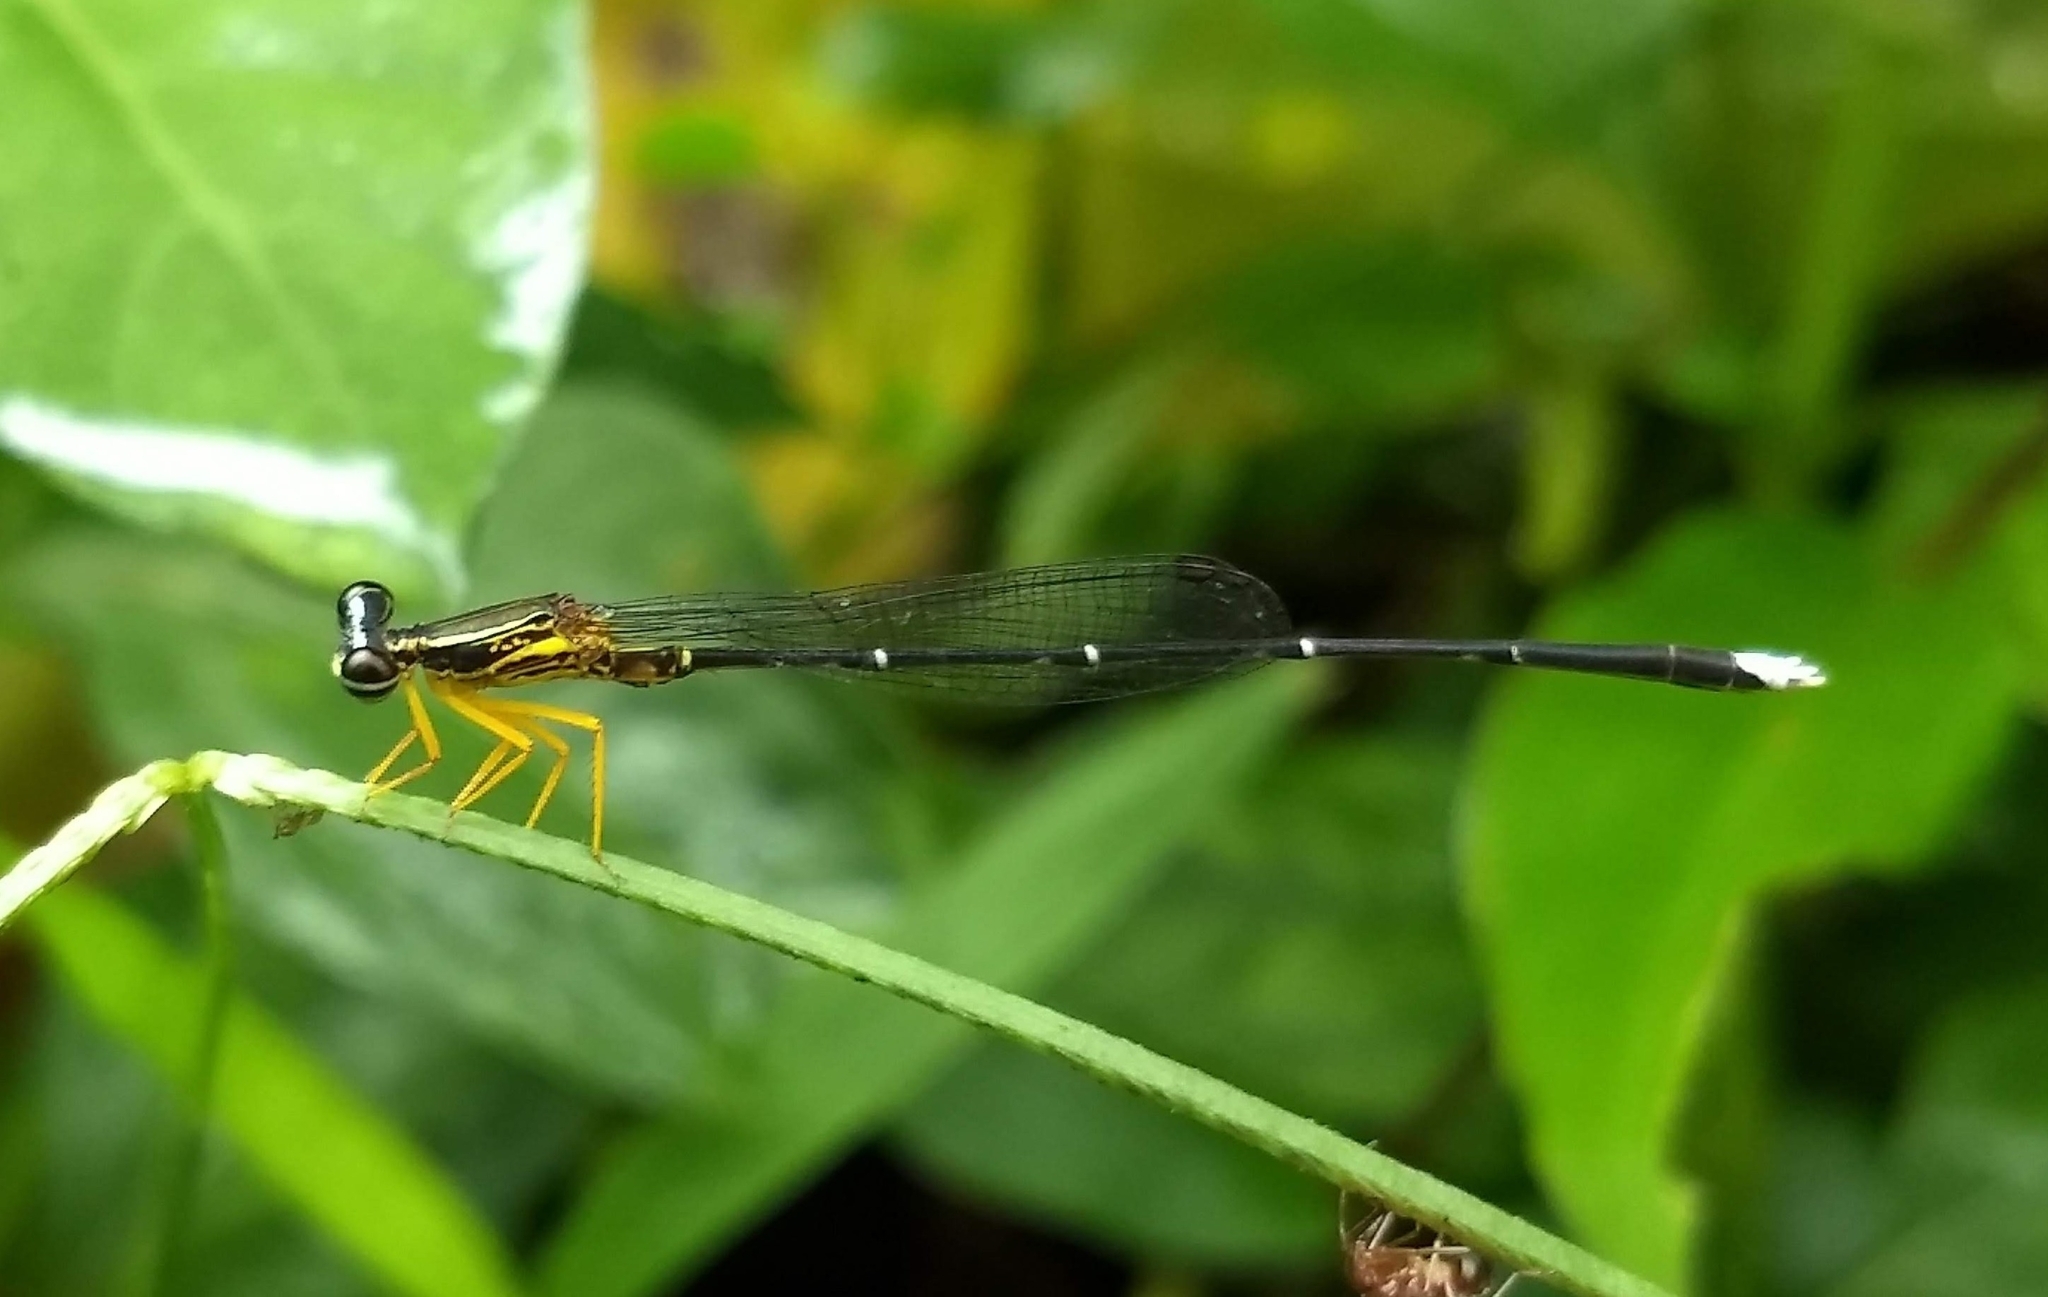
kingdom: Animalia
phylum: Arthropoda
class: Insecta
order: Odonata
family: Platycnemididae
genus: Copera
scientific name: Copera vittata
